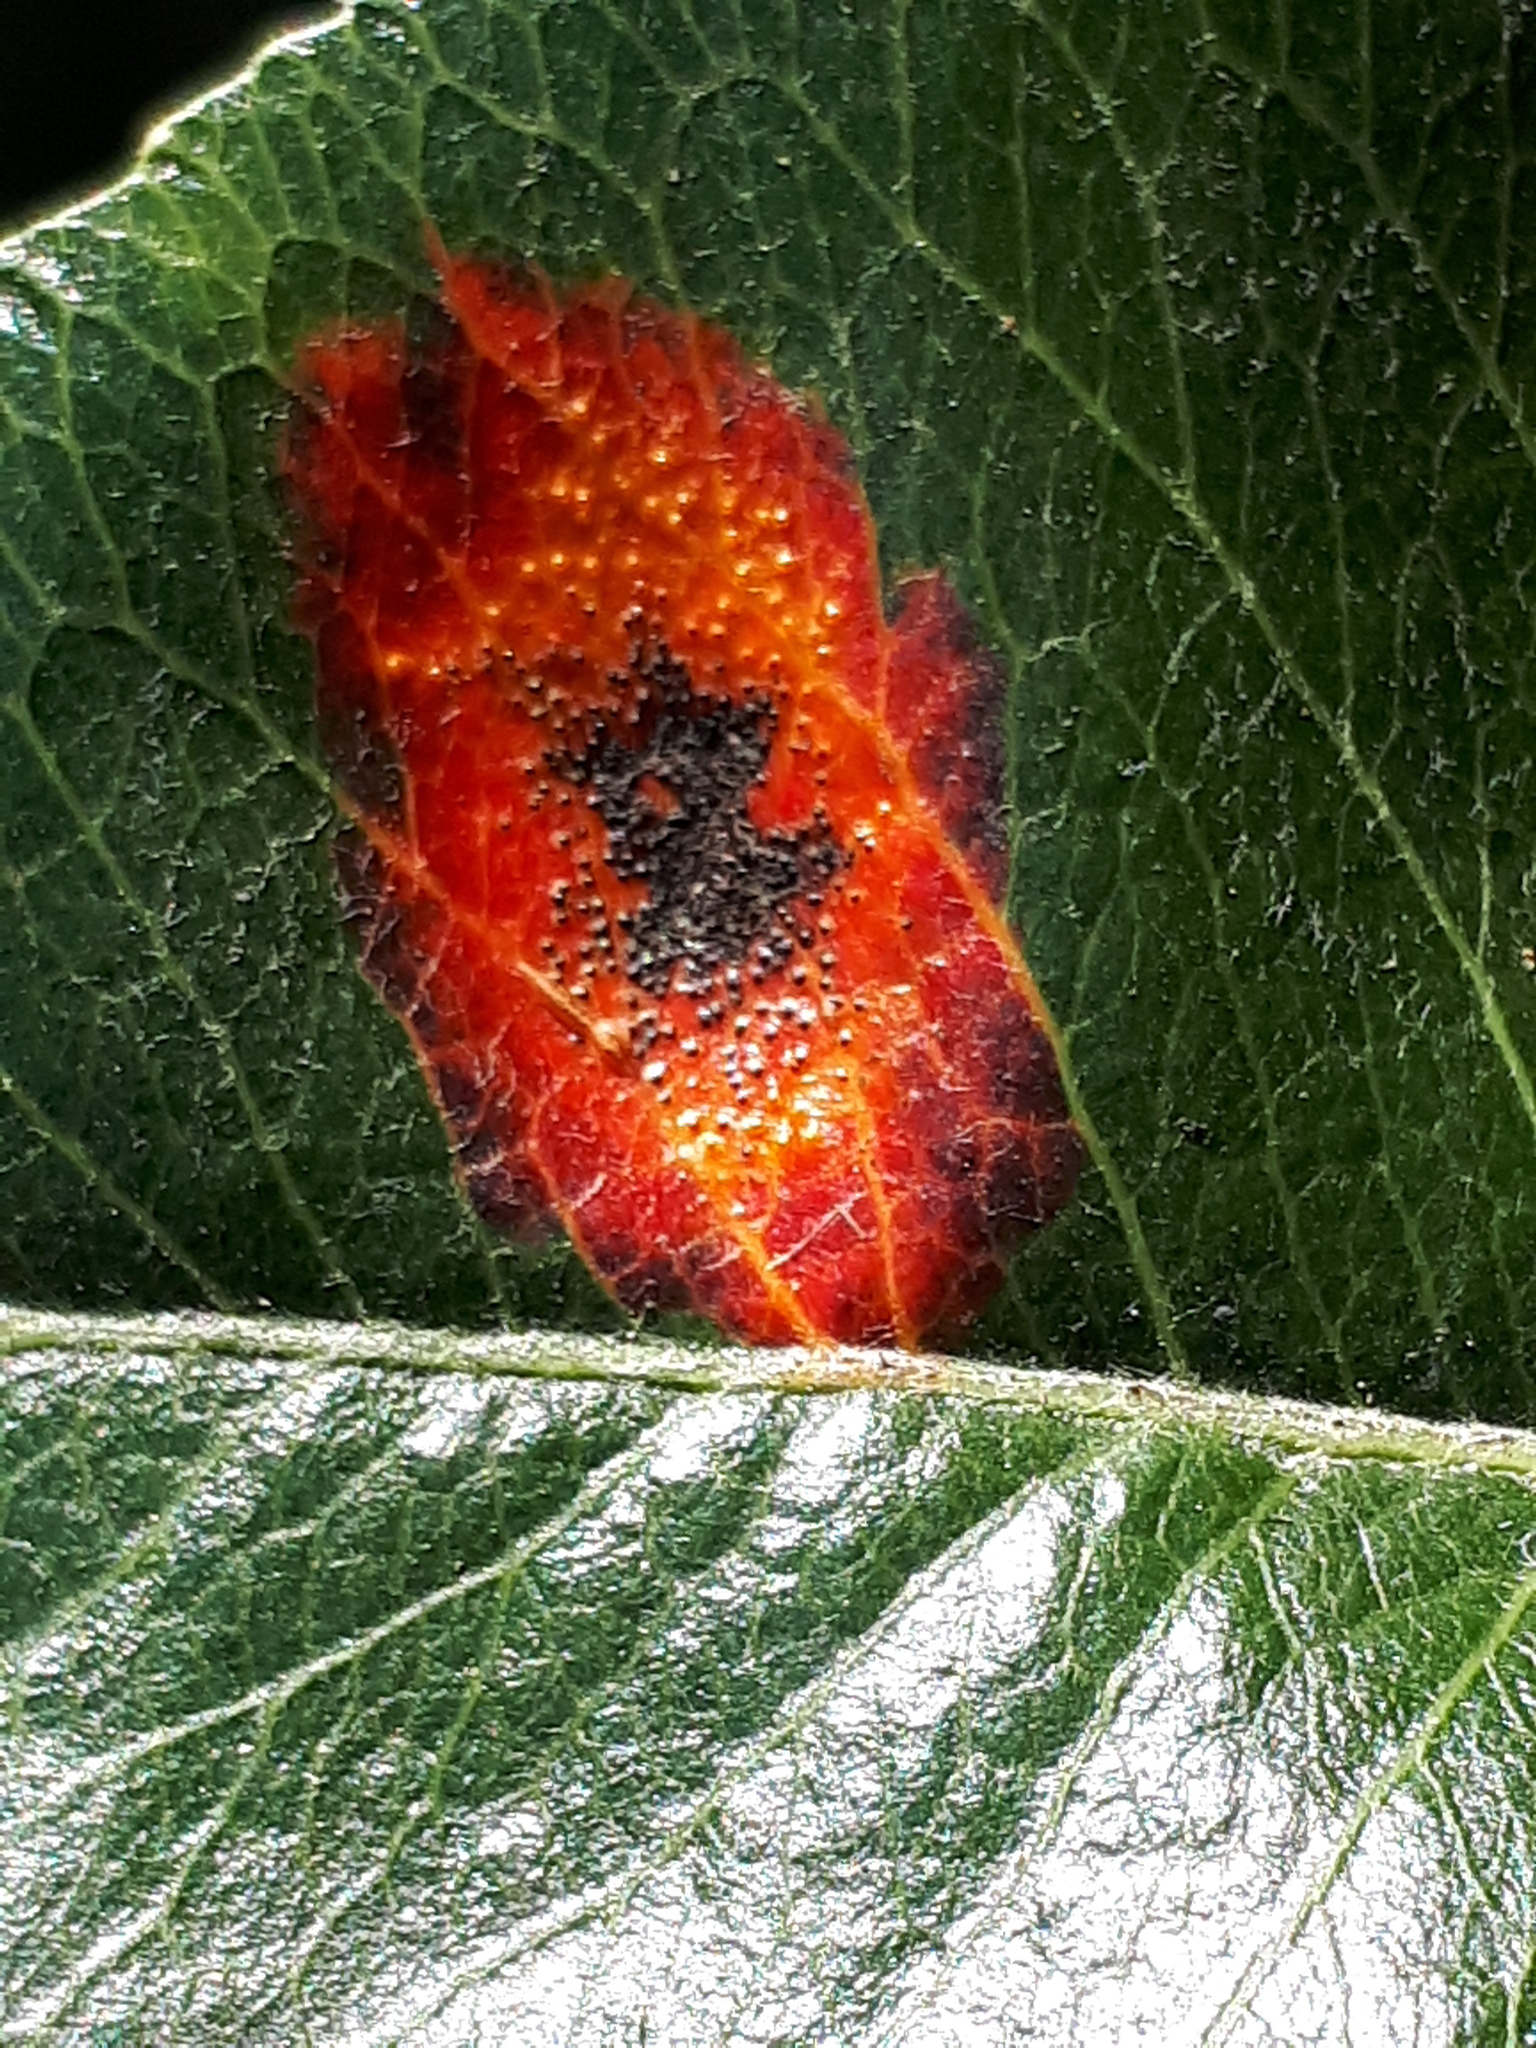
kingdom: Fungi
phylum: Basidiomycota
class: Pucciniomycetes
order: Pucciniales
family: Gymnosporangiaceae
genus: Gymnosporangium
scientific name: Gymnosporangium sabinae
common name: Pear trellis rust fungus
